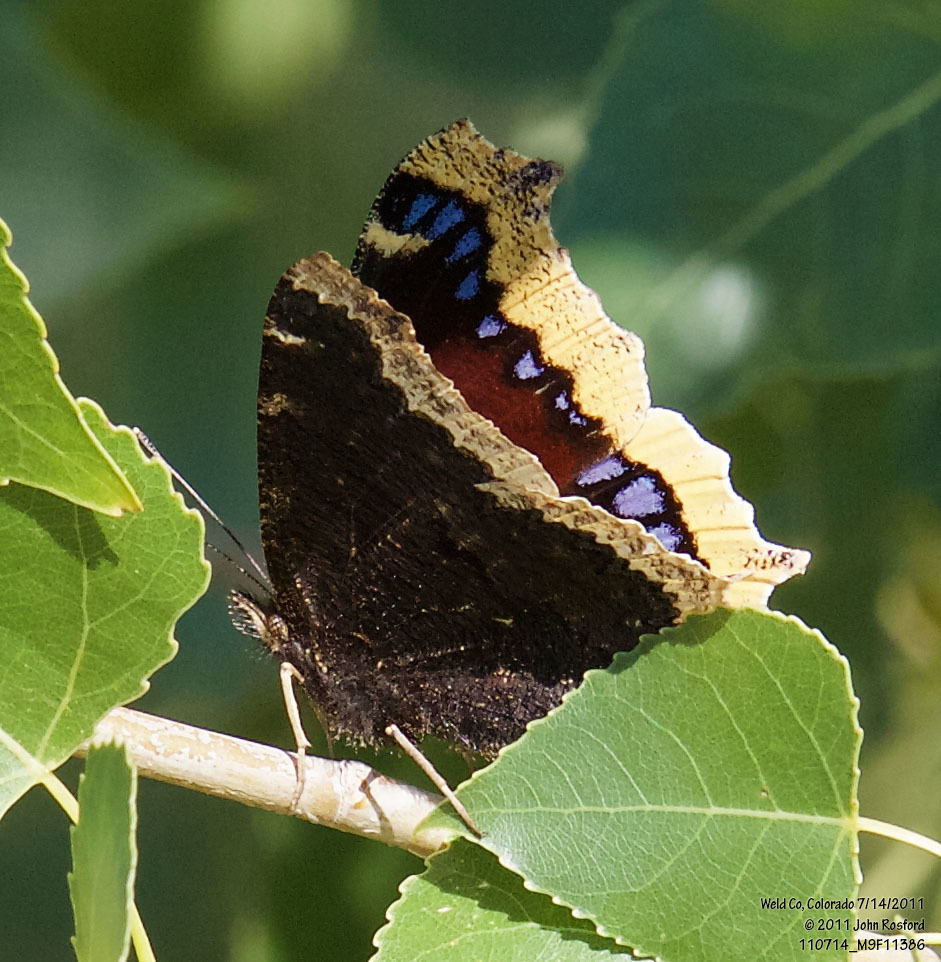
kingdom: Animalia
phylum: Arthropoda
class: Insecta
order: Lepidoptera
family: Nymphalidae
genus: Nymphalis
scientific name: Nymphalis antiopa
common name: Camberwell beauty
